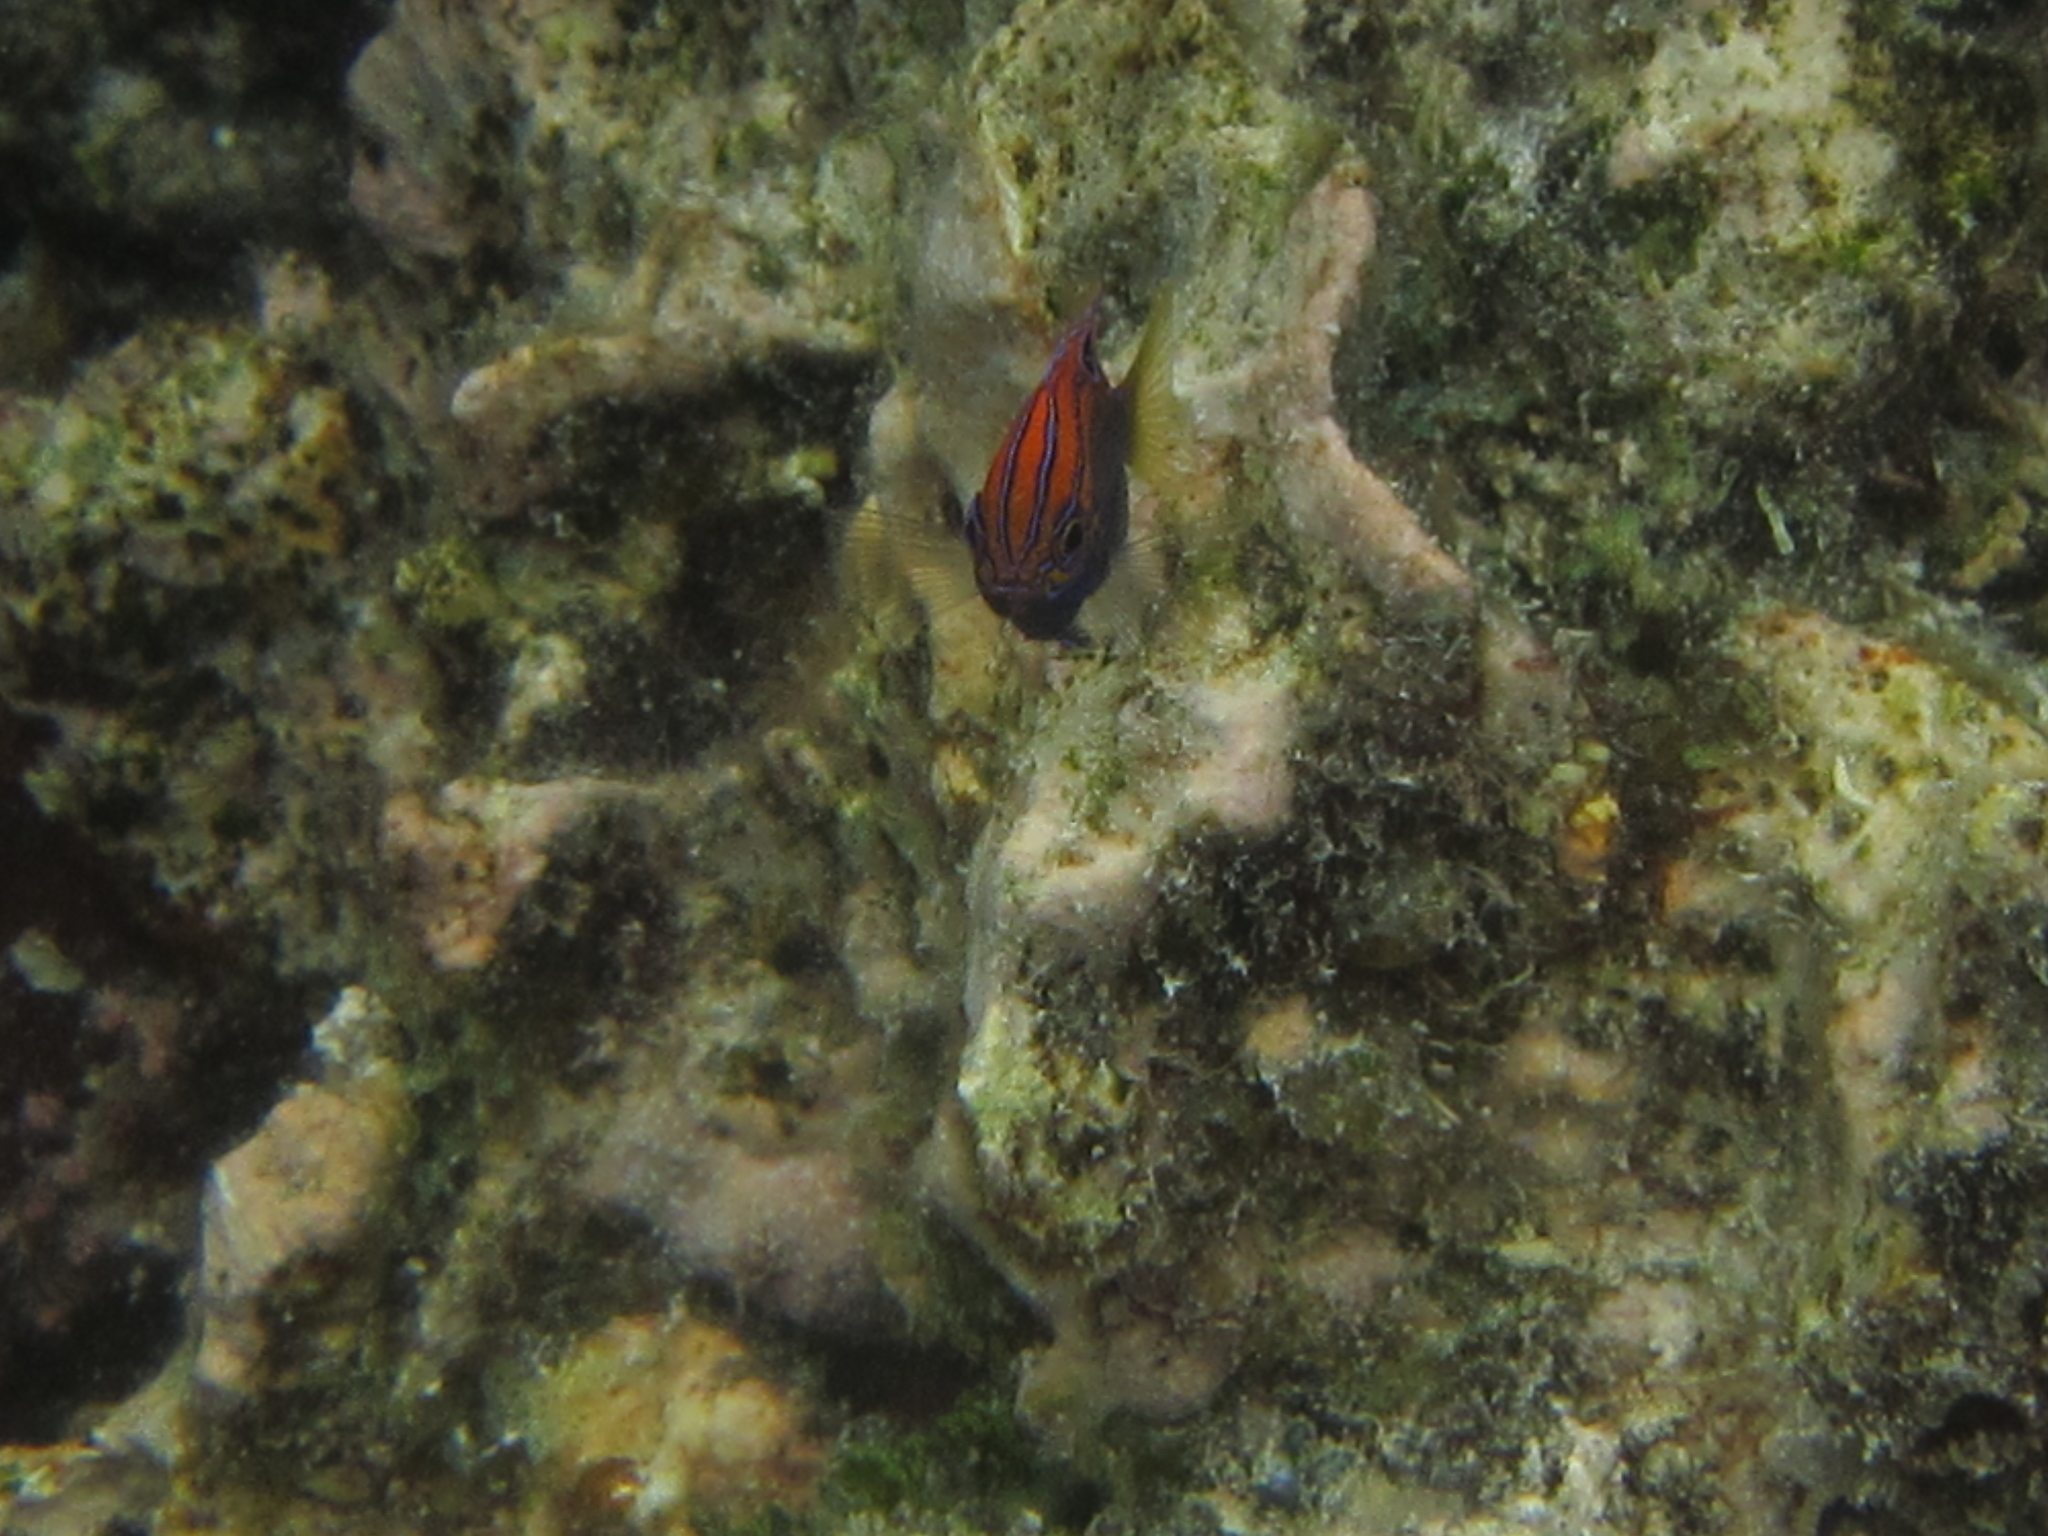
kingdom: Animalia
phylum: Chordata
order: Perciformes
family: Pomacentridae
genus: Pomacentrus
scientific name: Pomacentrus vaiuli
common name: Princess damsel
